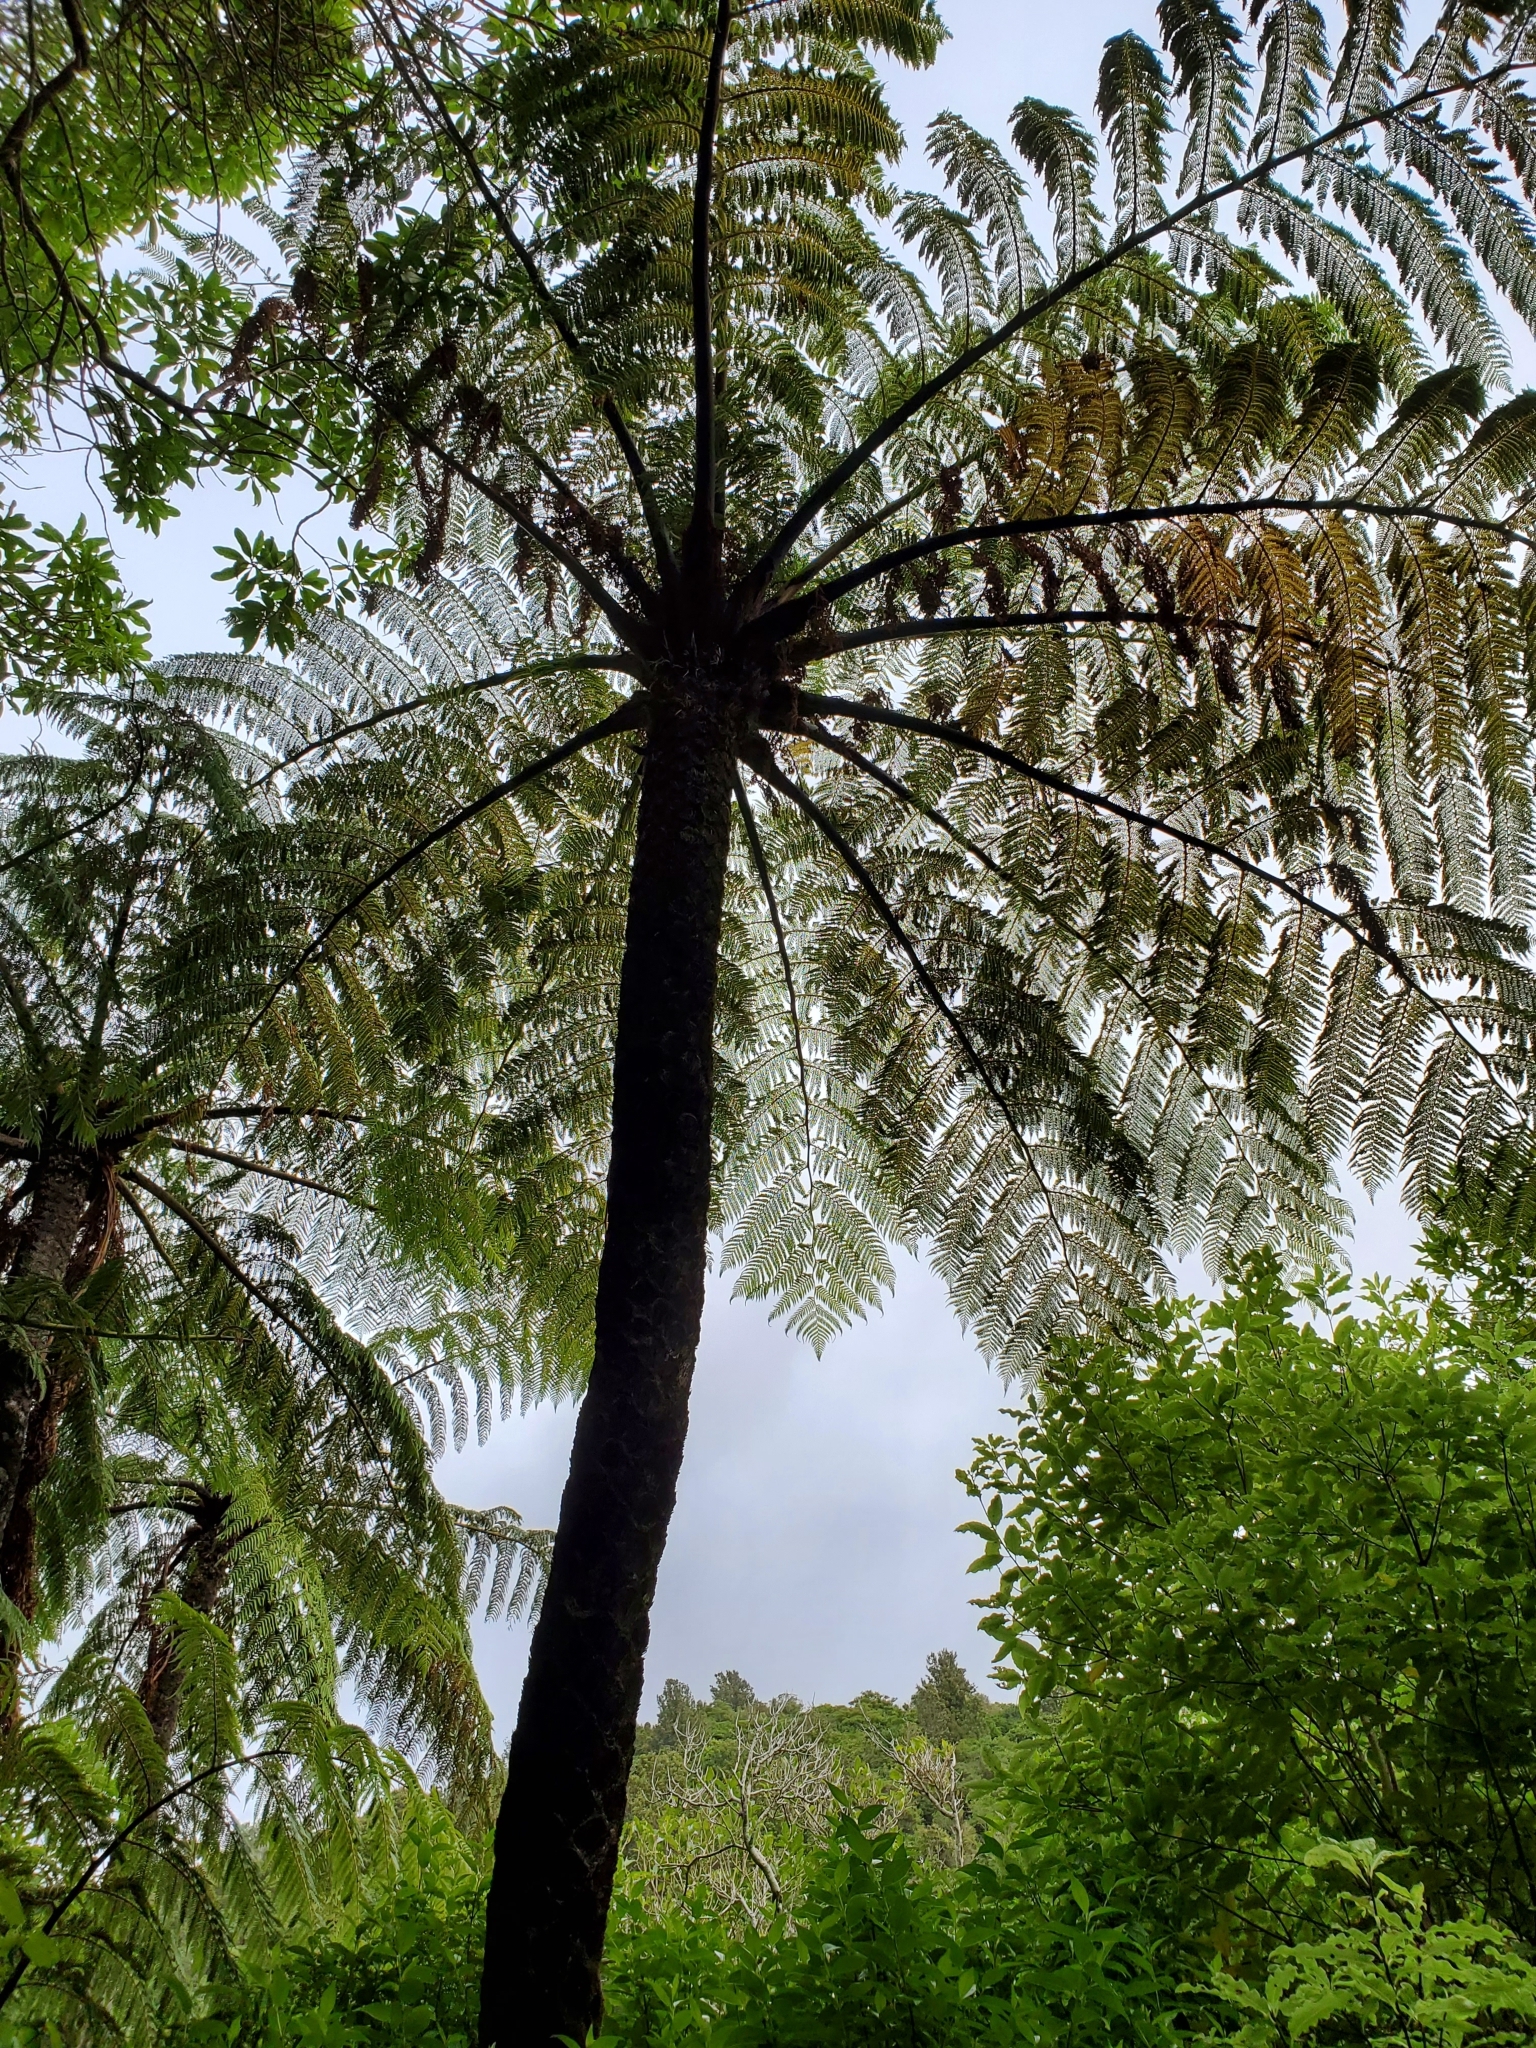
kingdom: Plantae
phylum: Tracheophyta
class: Polypodiopsida
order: Cyatheales
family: Cyatheaceae
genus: Sphaeropteris
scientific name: Sphaeropteris medullaris
